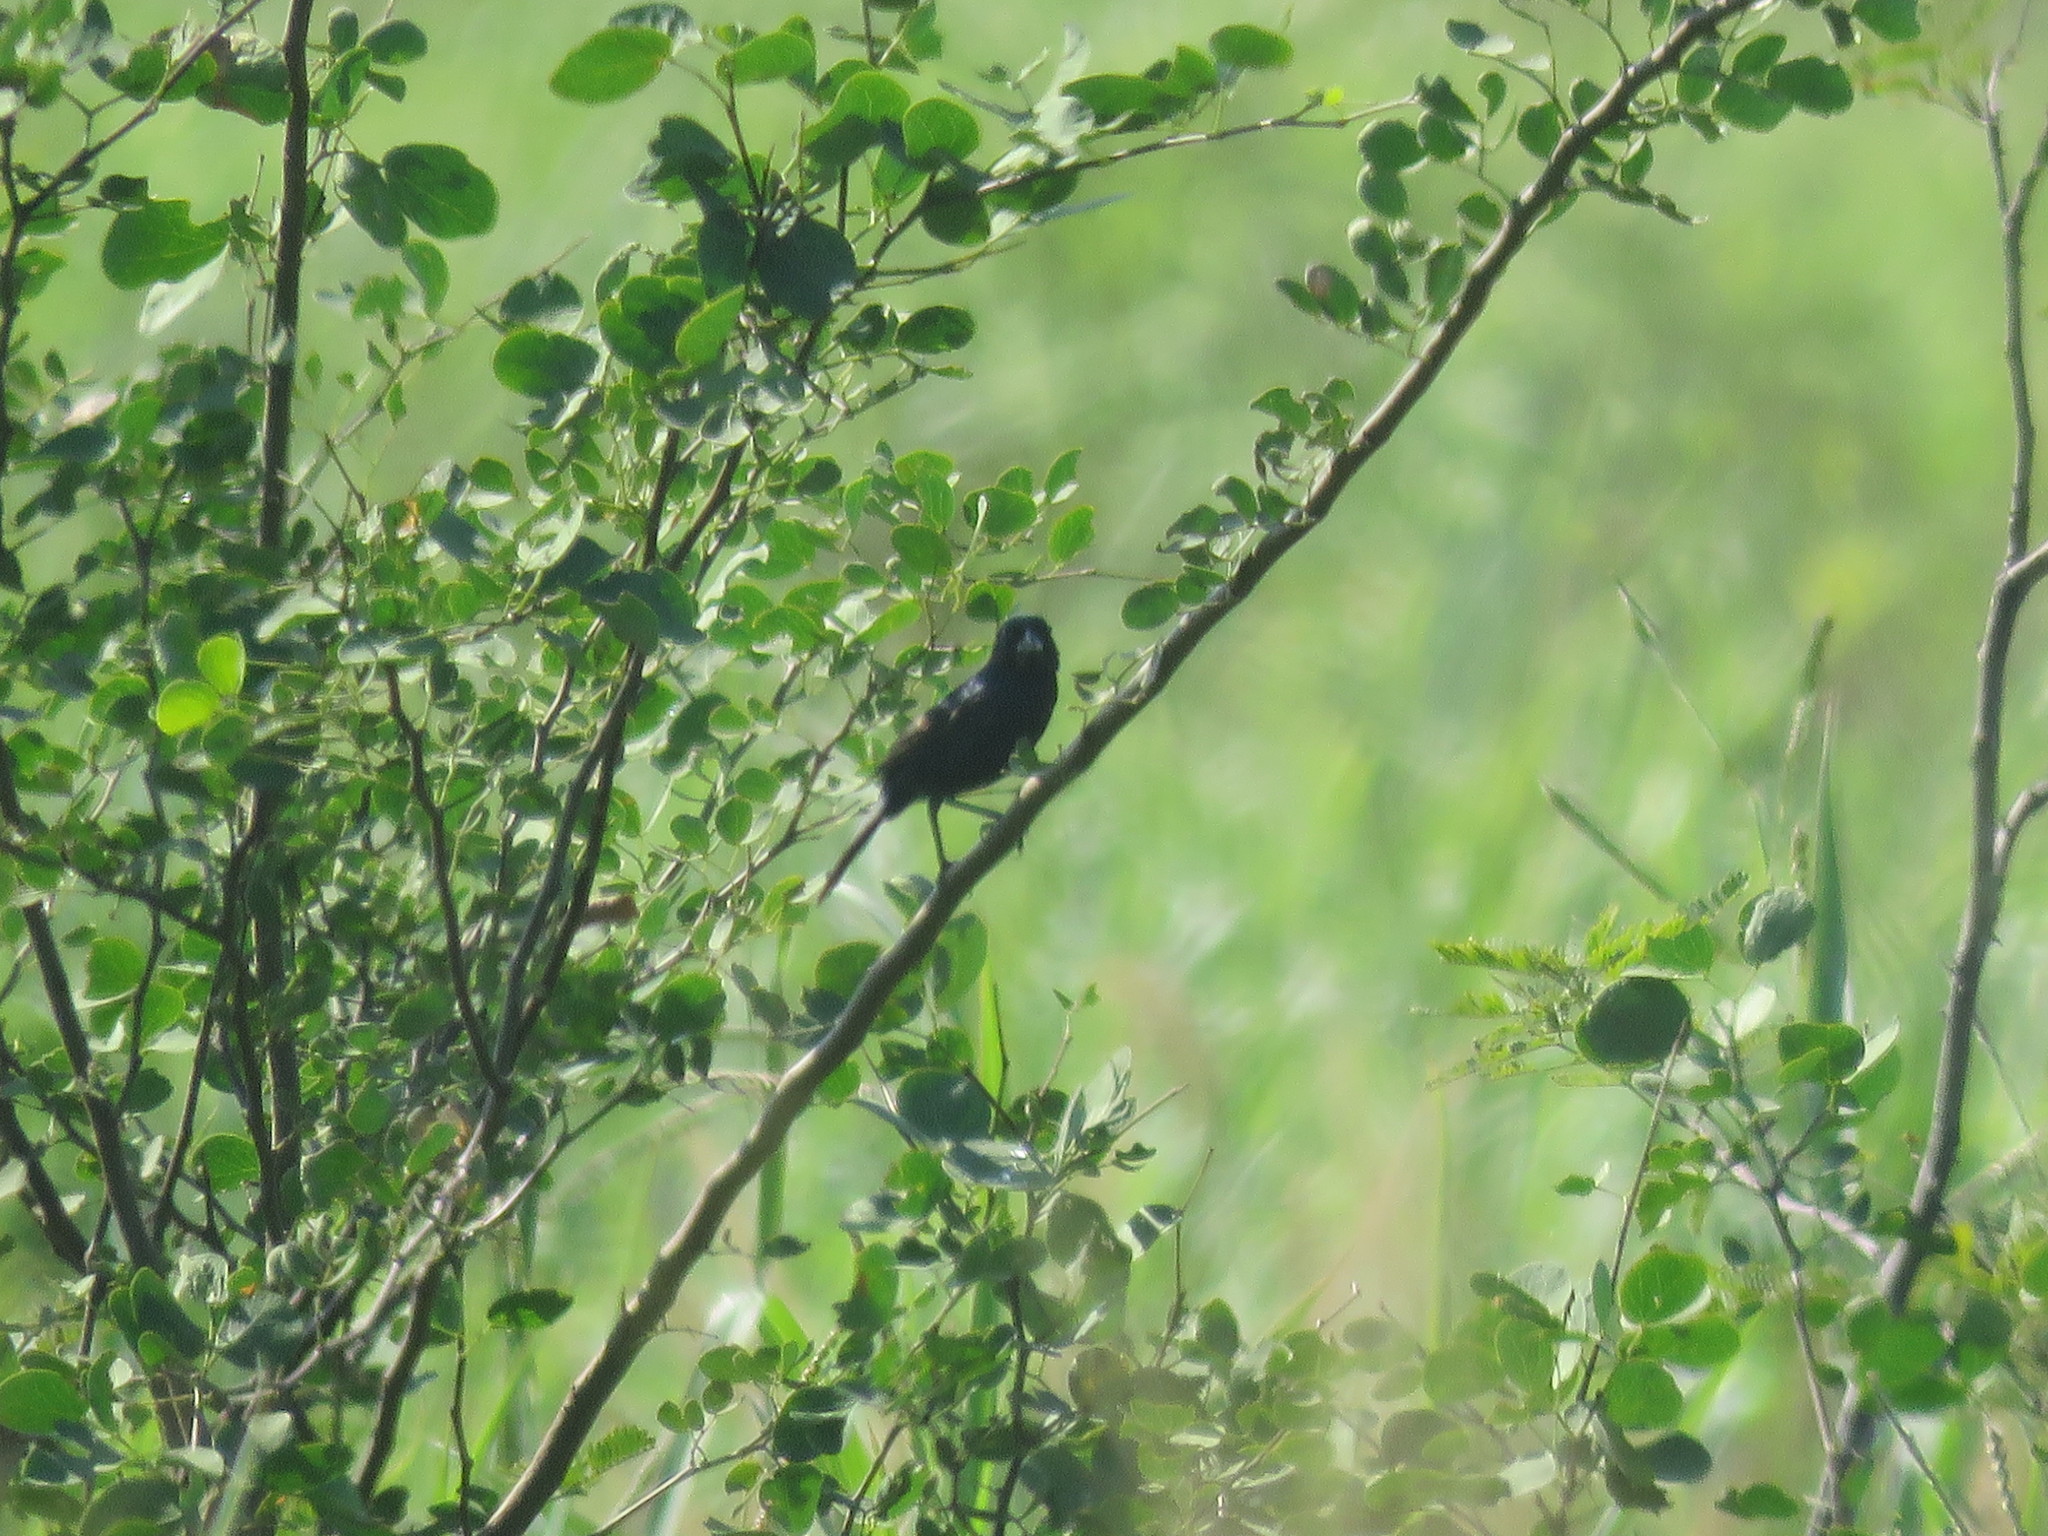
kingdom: Animalia
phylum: Chordata
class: Aves
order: Passeriformes
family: Thraupidae
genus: Volatinia
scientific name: Volatinia jacarina
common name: Blue-black grassquit
